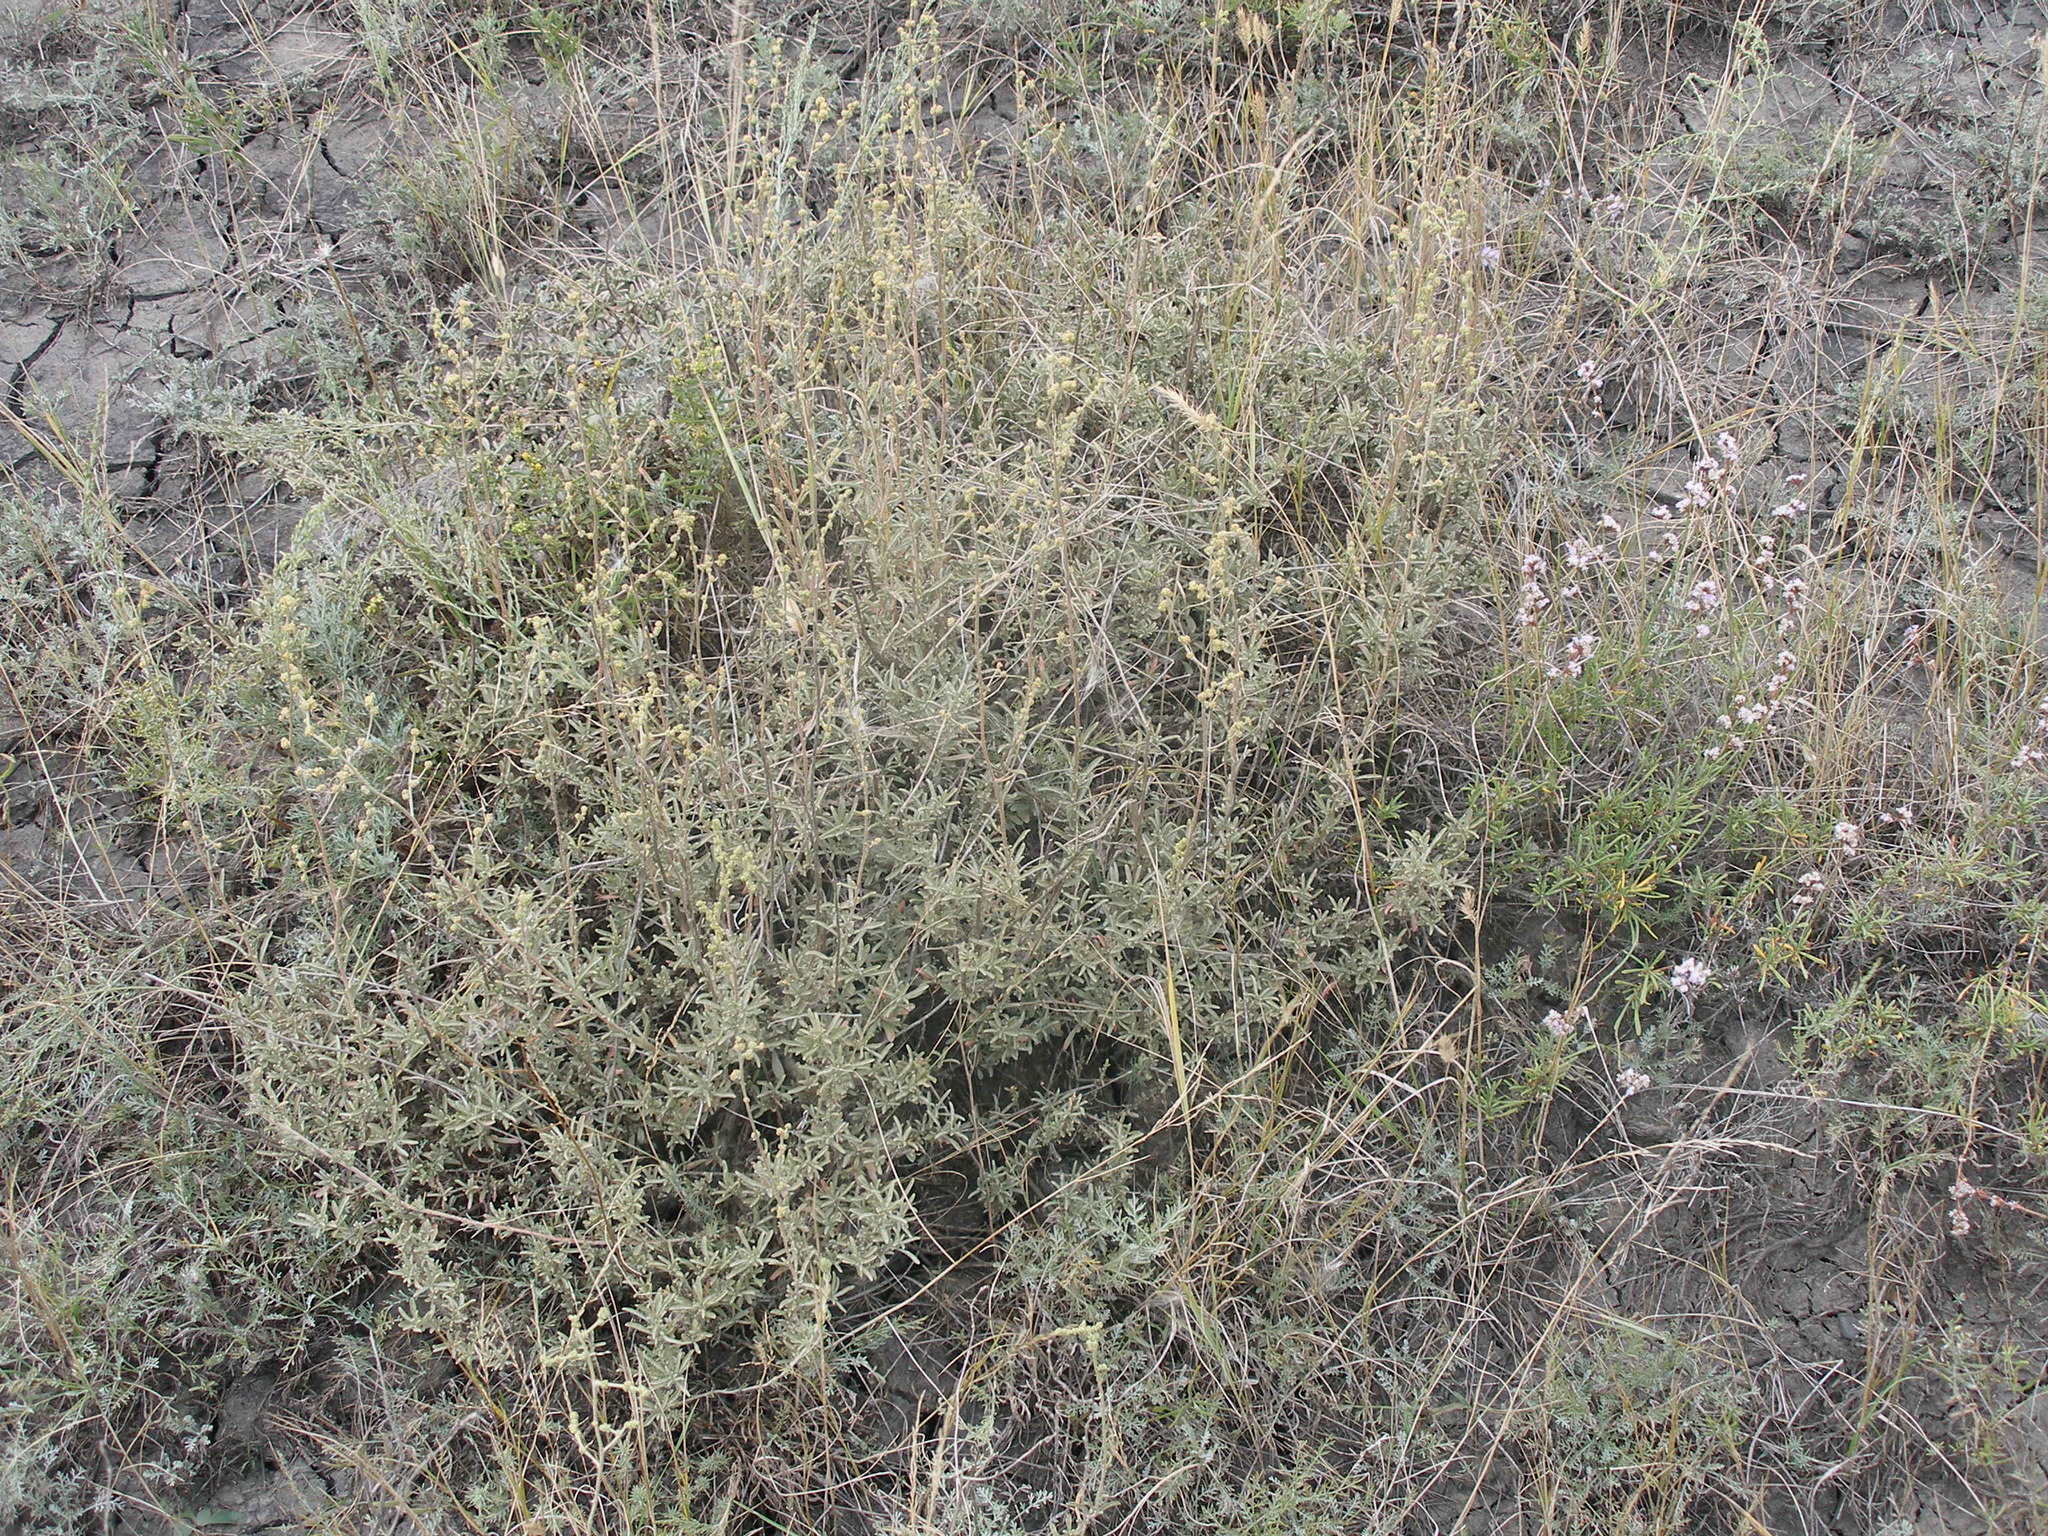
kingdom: Plantae
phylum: Tracheophyta
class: Magnoliopsida
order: Caryophyllales
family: Amaranthaceae
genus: Atriplex
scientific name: Atriplex cana
